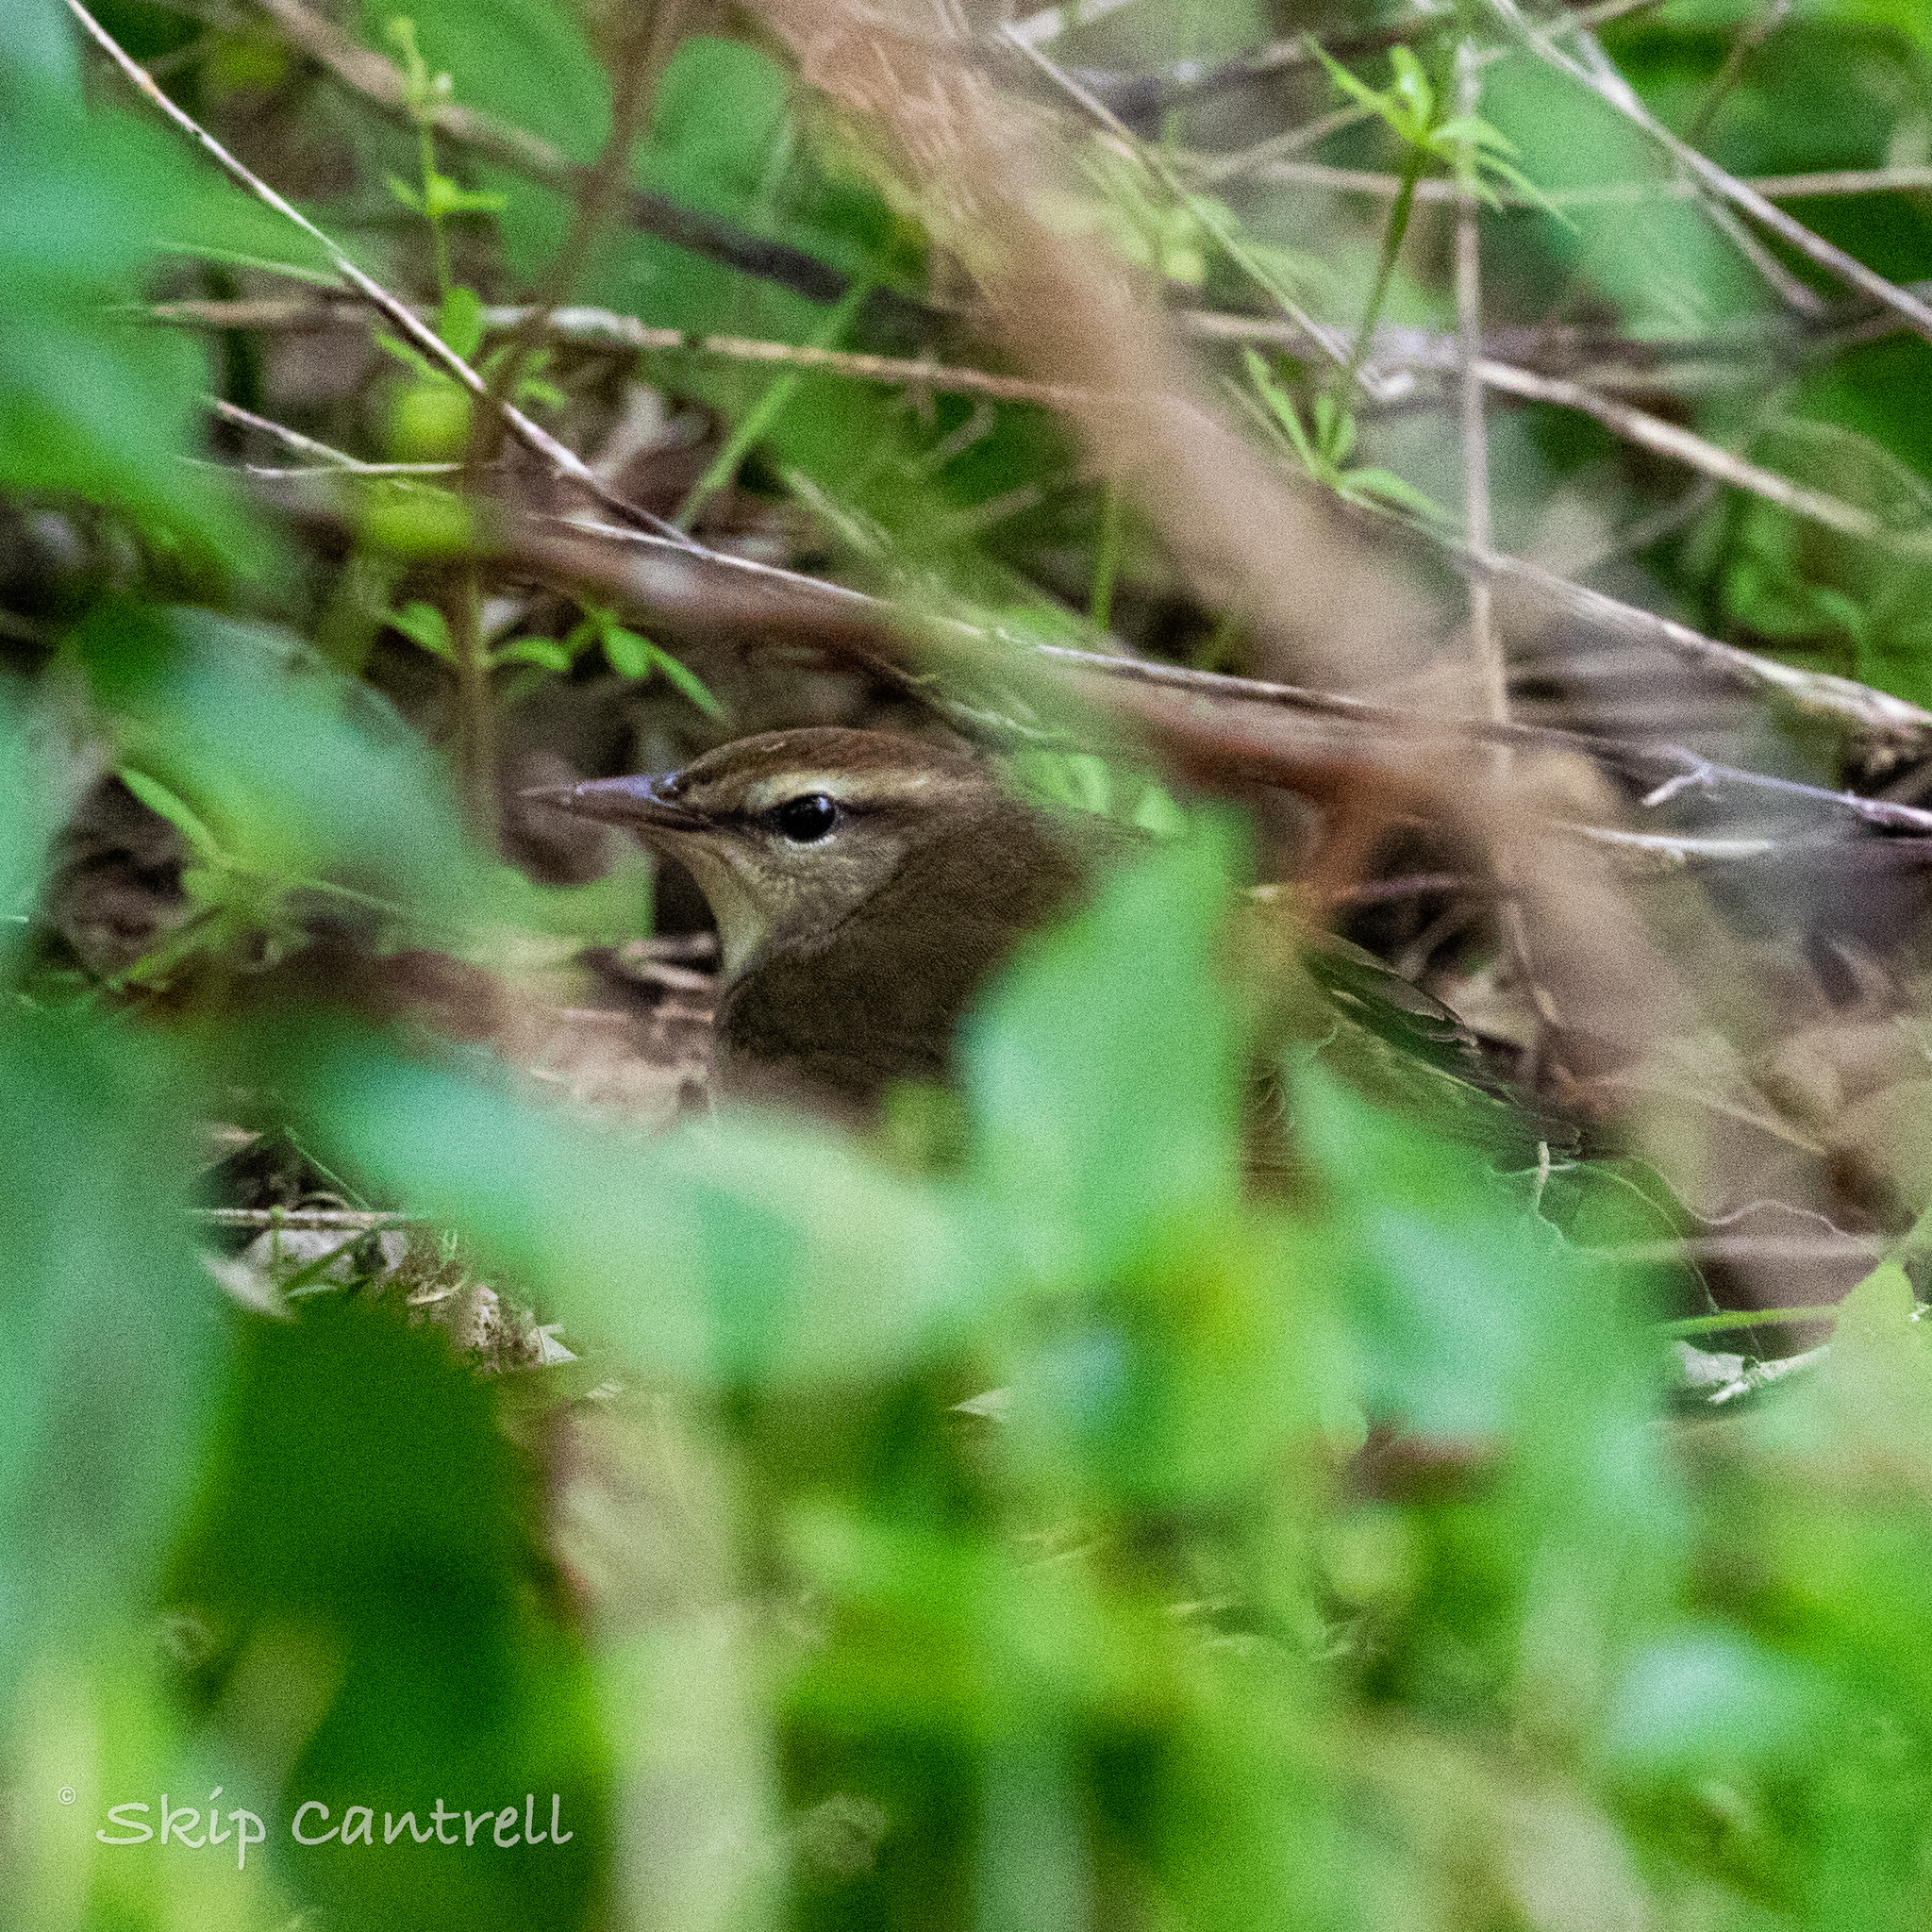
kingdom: Animalia
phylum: Chordata
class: Aves
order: Passeriformes
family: Parulidae
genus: Limnothlypis
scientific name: Limnothlypis swainsonii
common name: Swainson's warbler
